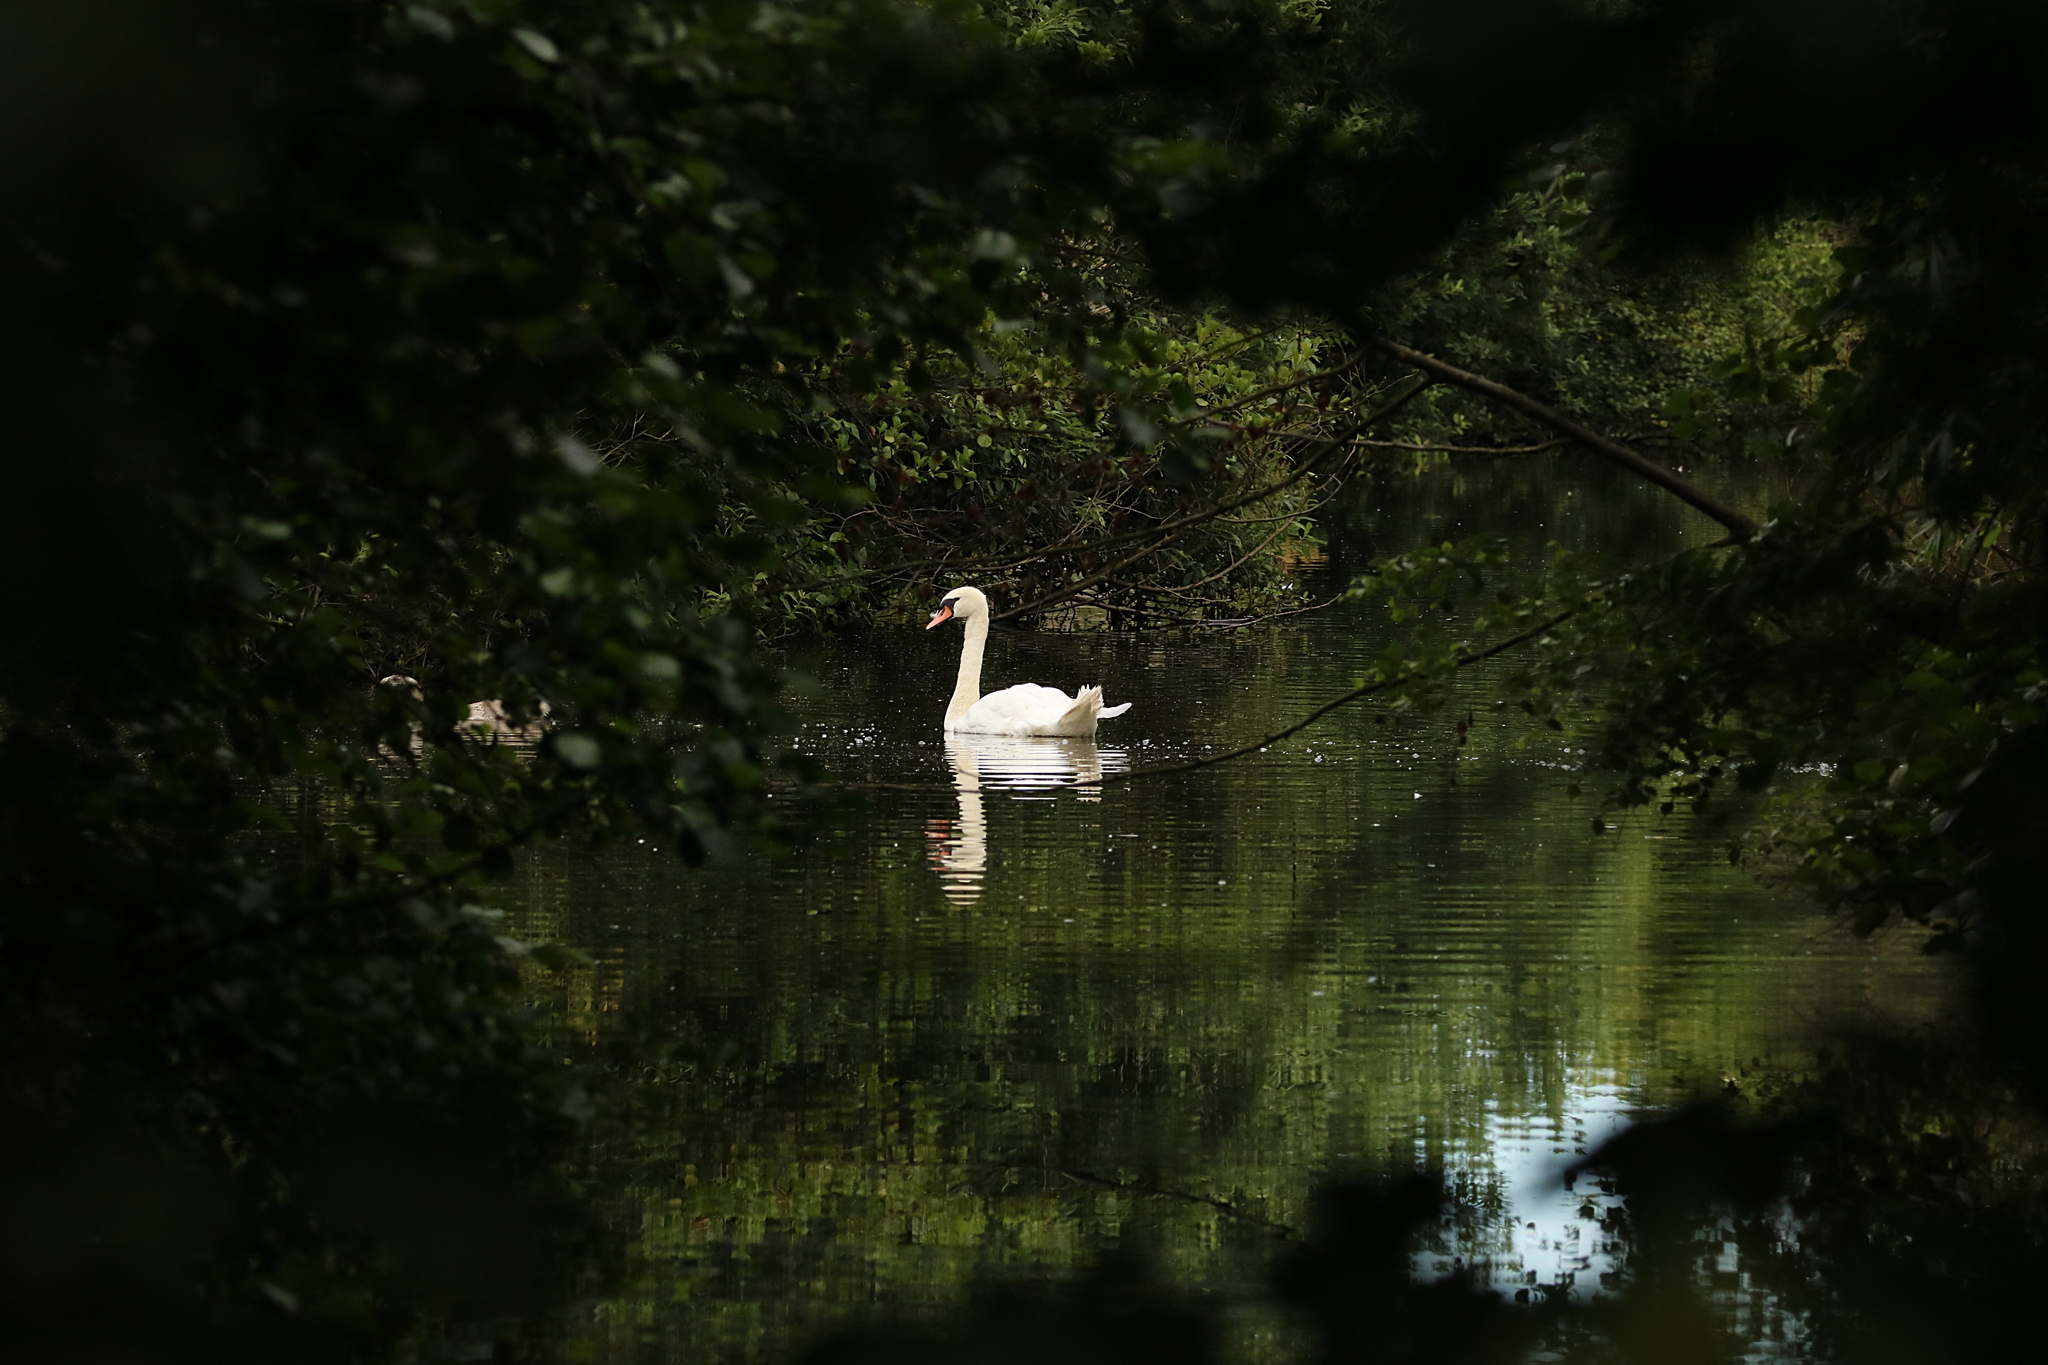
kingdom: Animalia
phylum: Chordata
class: Aves
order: Anseriformes
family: Anatidae
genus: Cygnus
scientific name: Cygnus olor
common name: Mute swan
